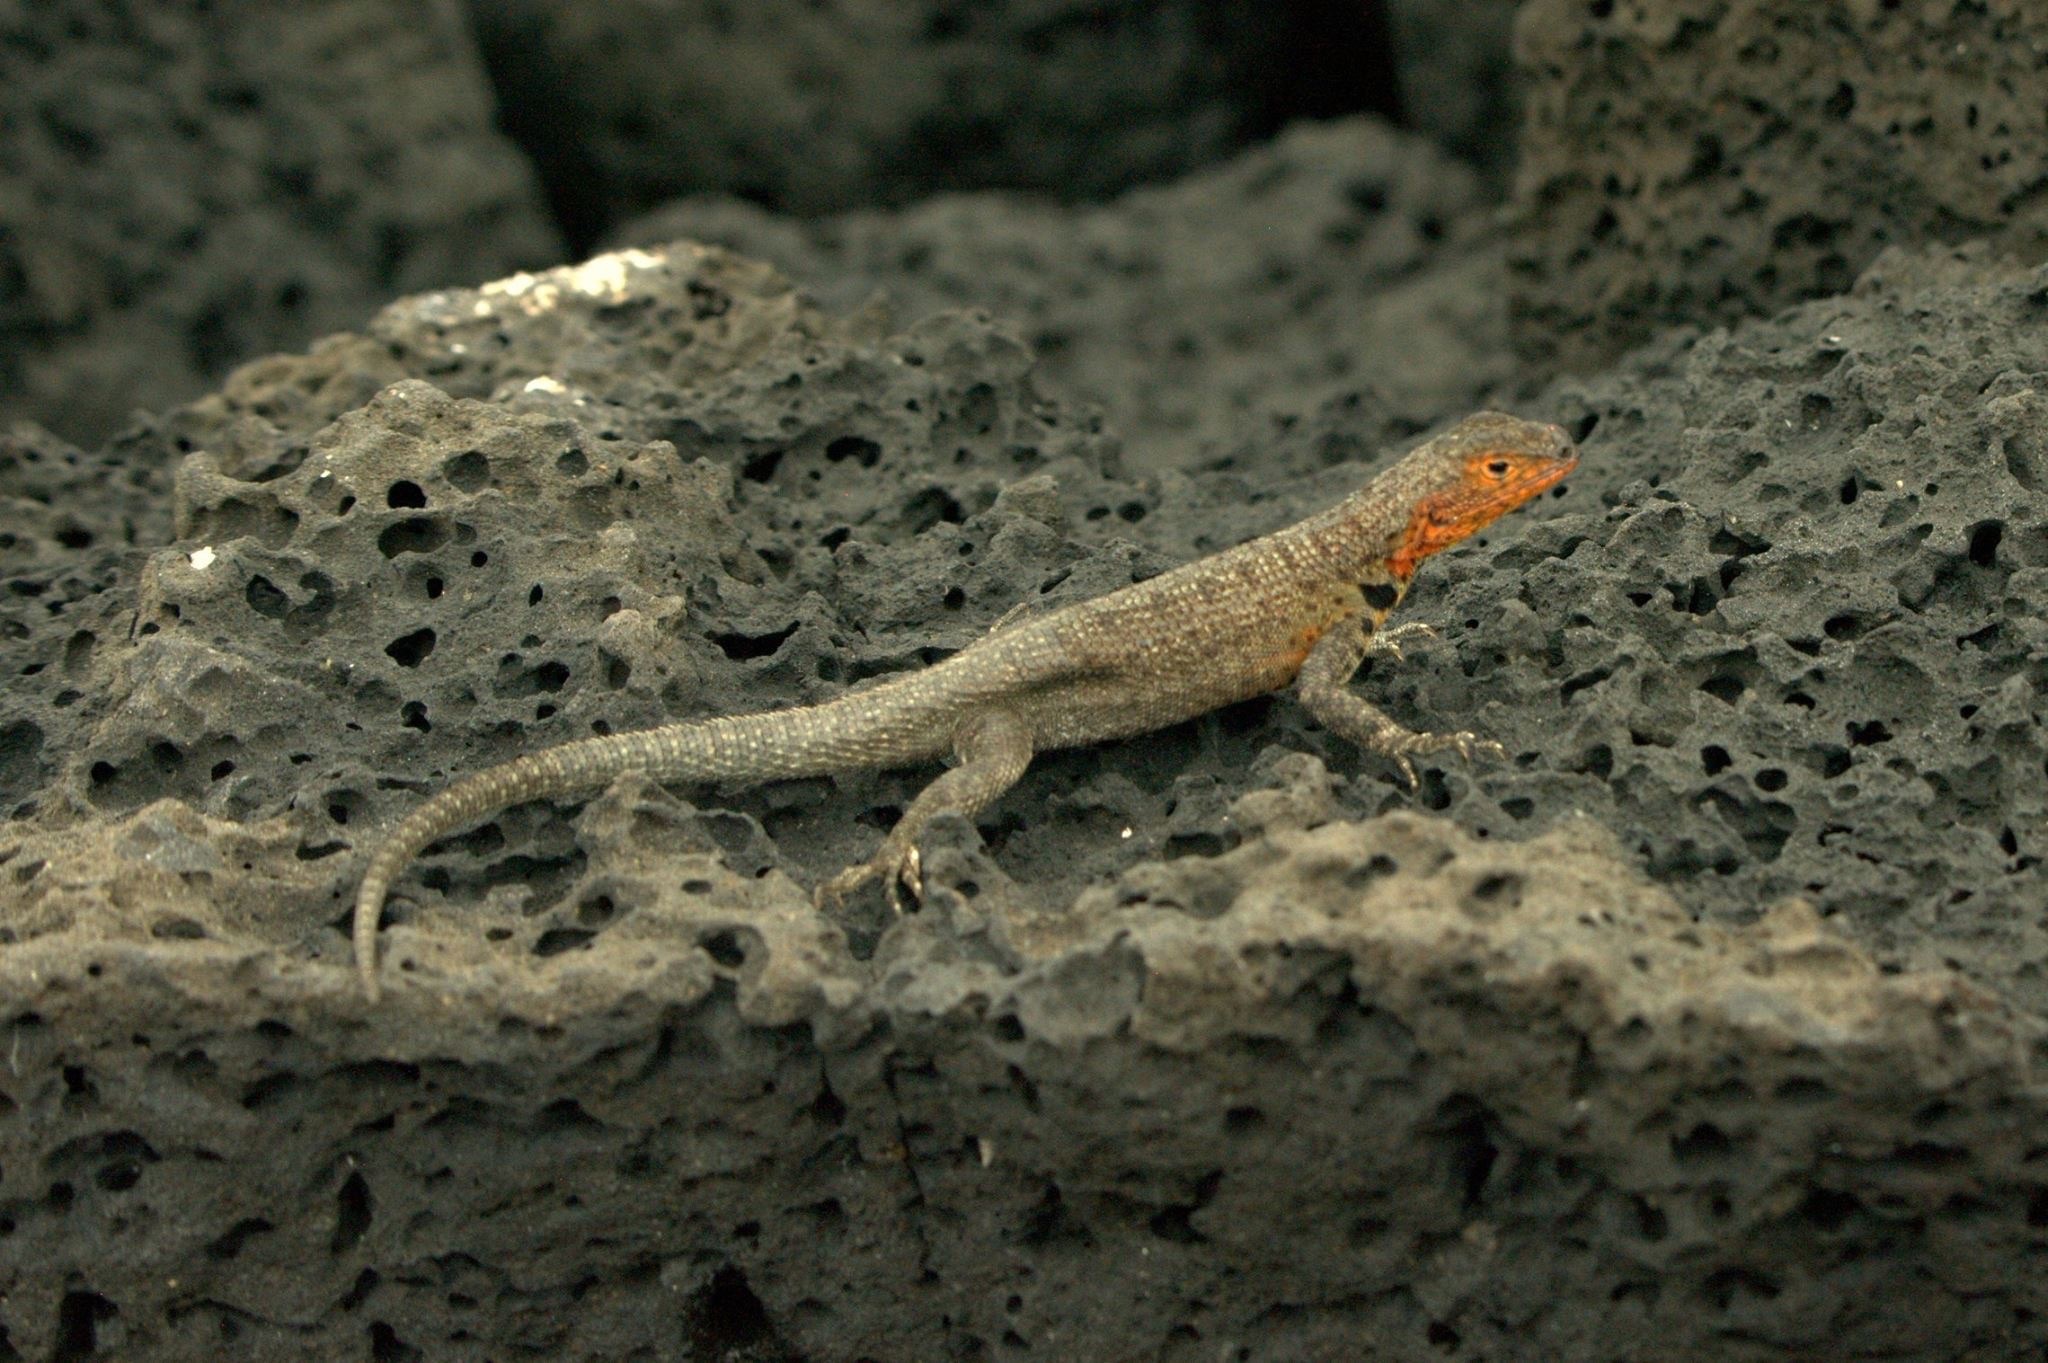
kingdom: Animalia
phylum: Chordata
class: Squamata
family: Tropiduridae
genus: Microlophus
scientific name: Microlophus indefatigabilis
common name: Galapagos lava lizard
